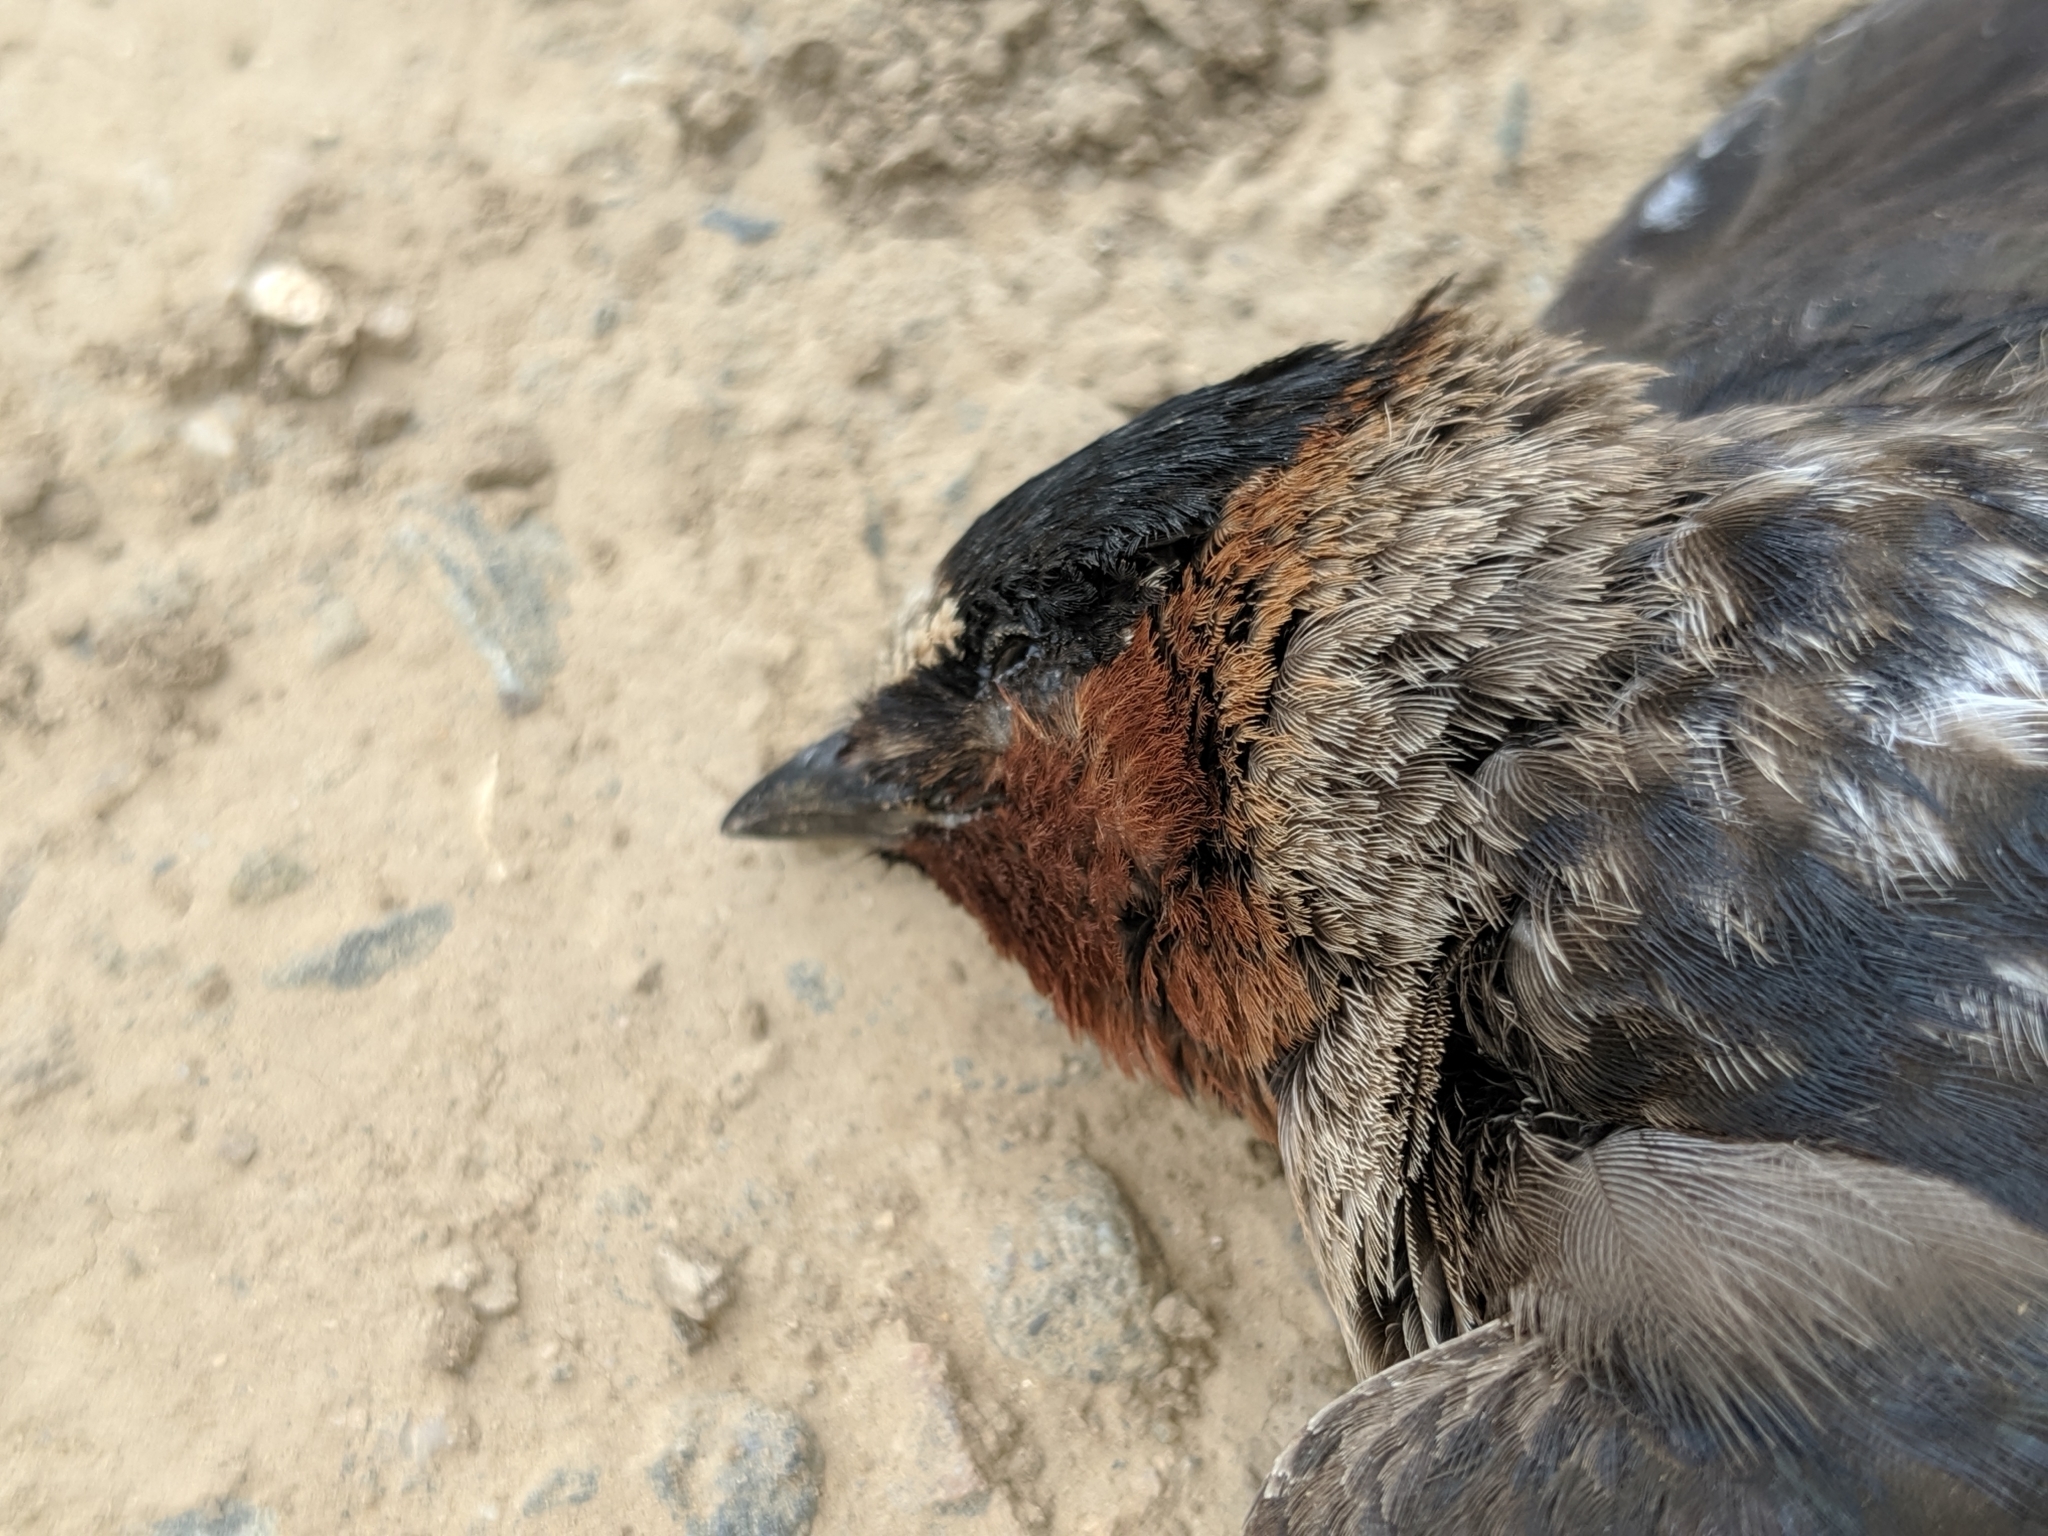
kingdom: Animalia
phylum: Chordata
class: Aves
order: Passeriformes
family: Hirundinidae
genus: Petrochelidon
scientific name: Petrochelidon pyrrhonota
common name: American cliff swallow
